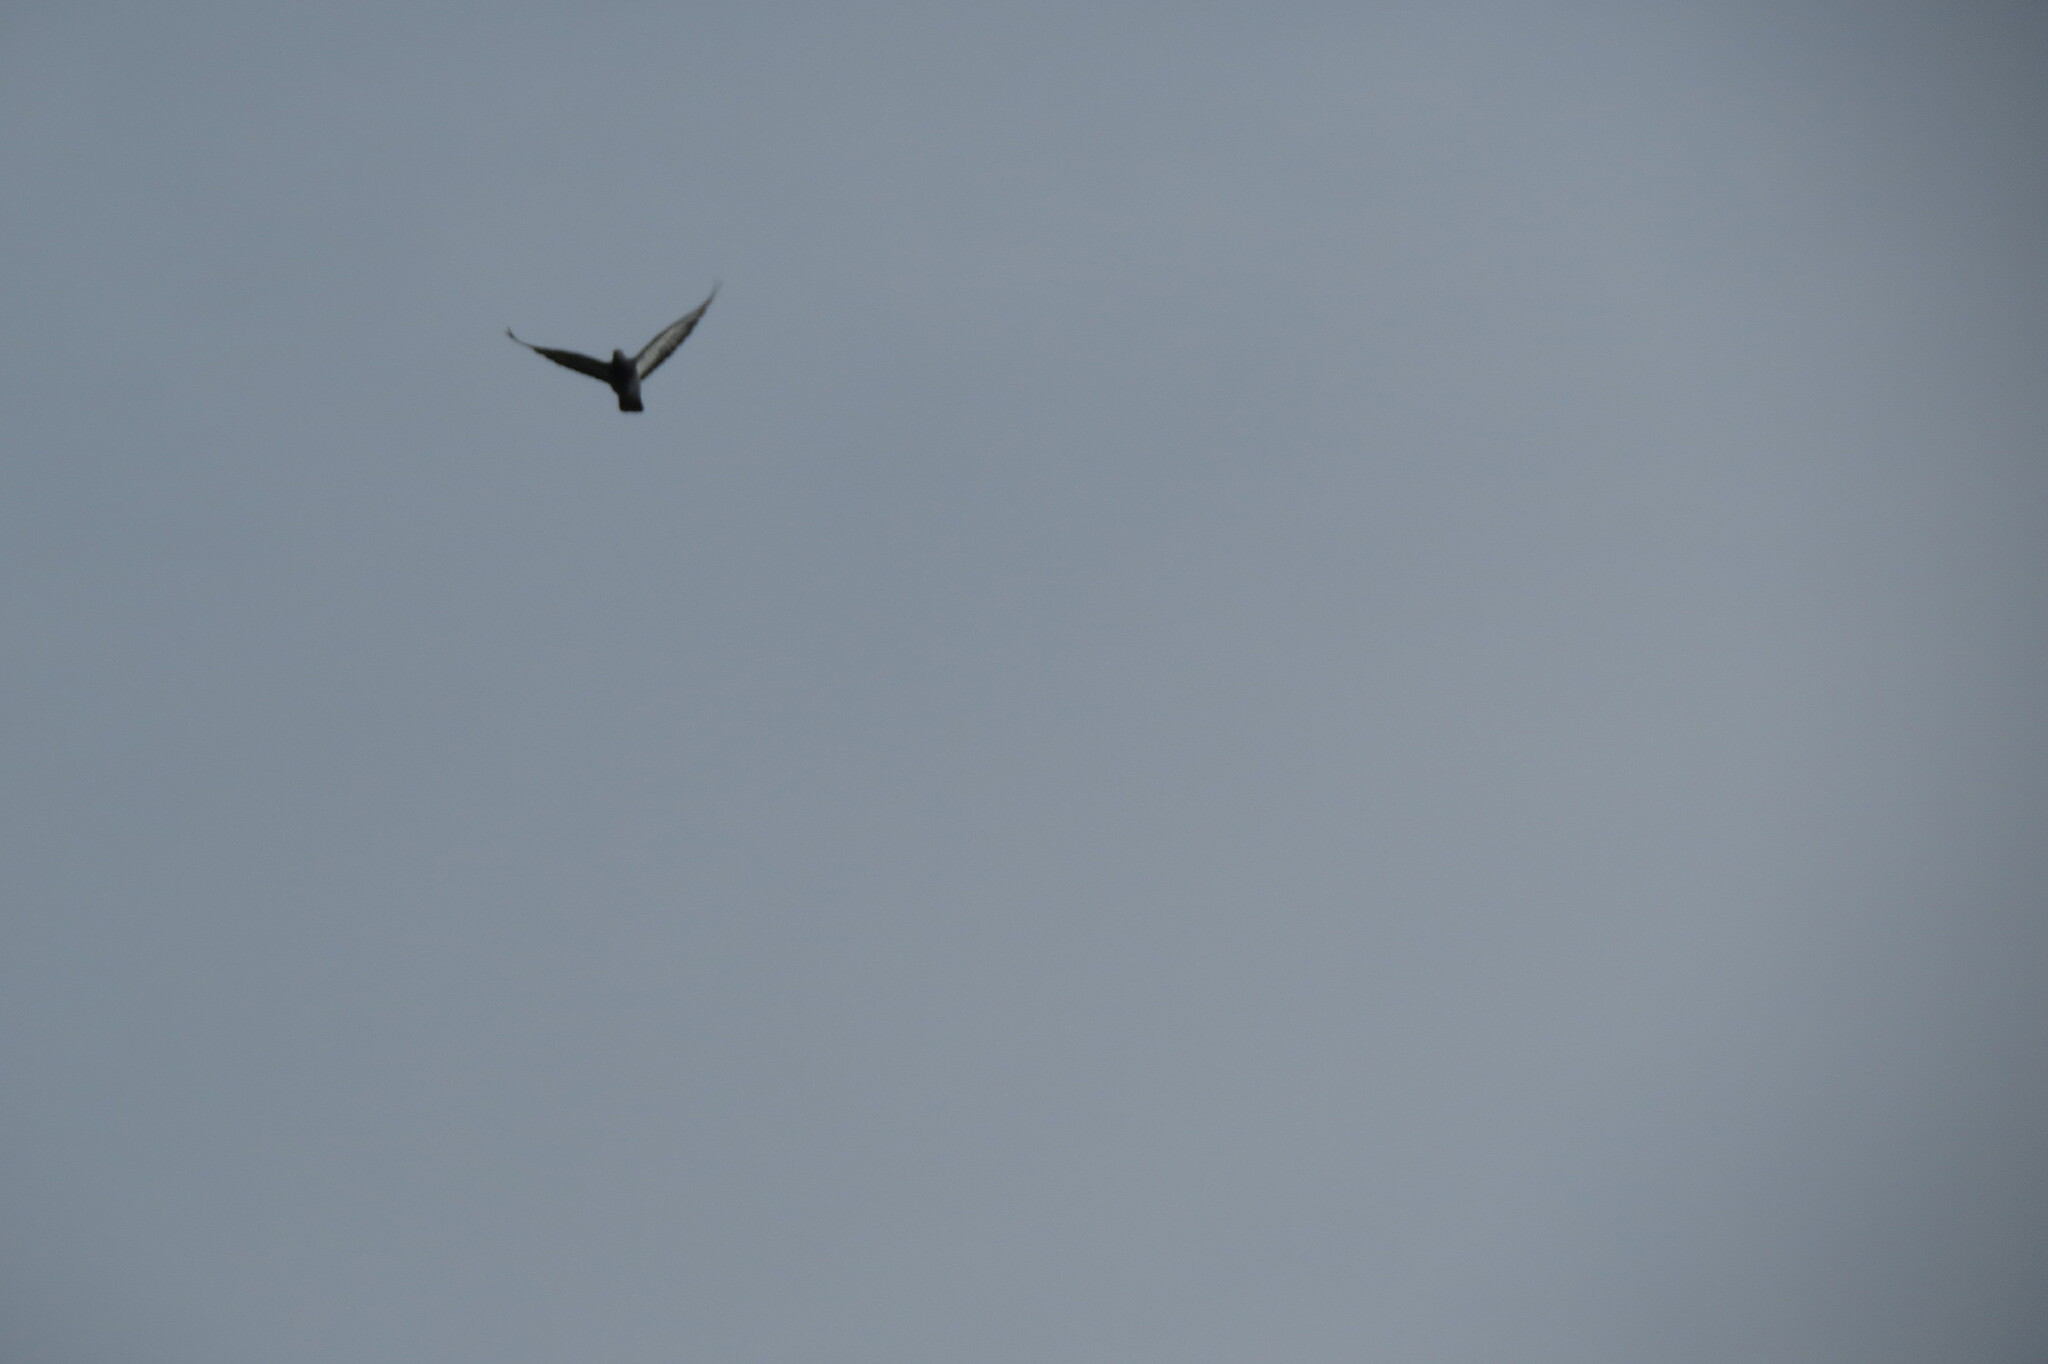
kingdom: Animalia
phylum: Chordata
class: Aves
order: Columbiformes
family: Columbidae
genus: Columba
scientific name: Columba livia
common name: Rock pigeon
